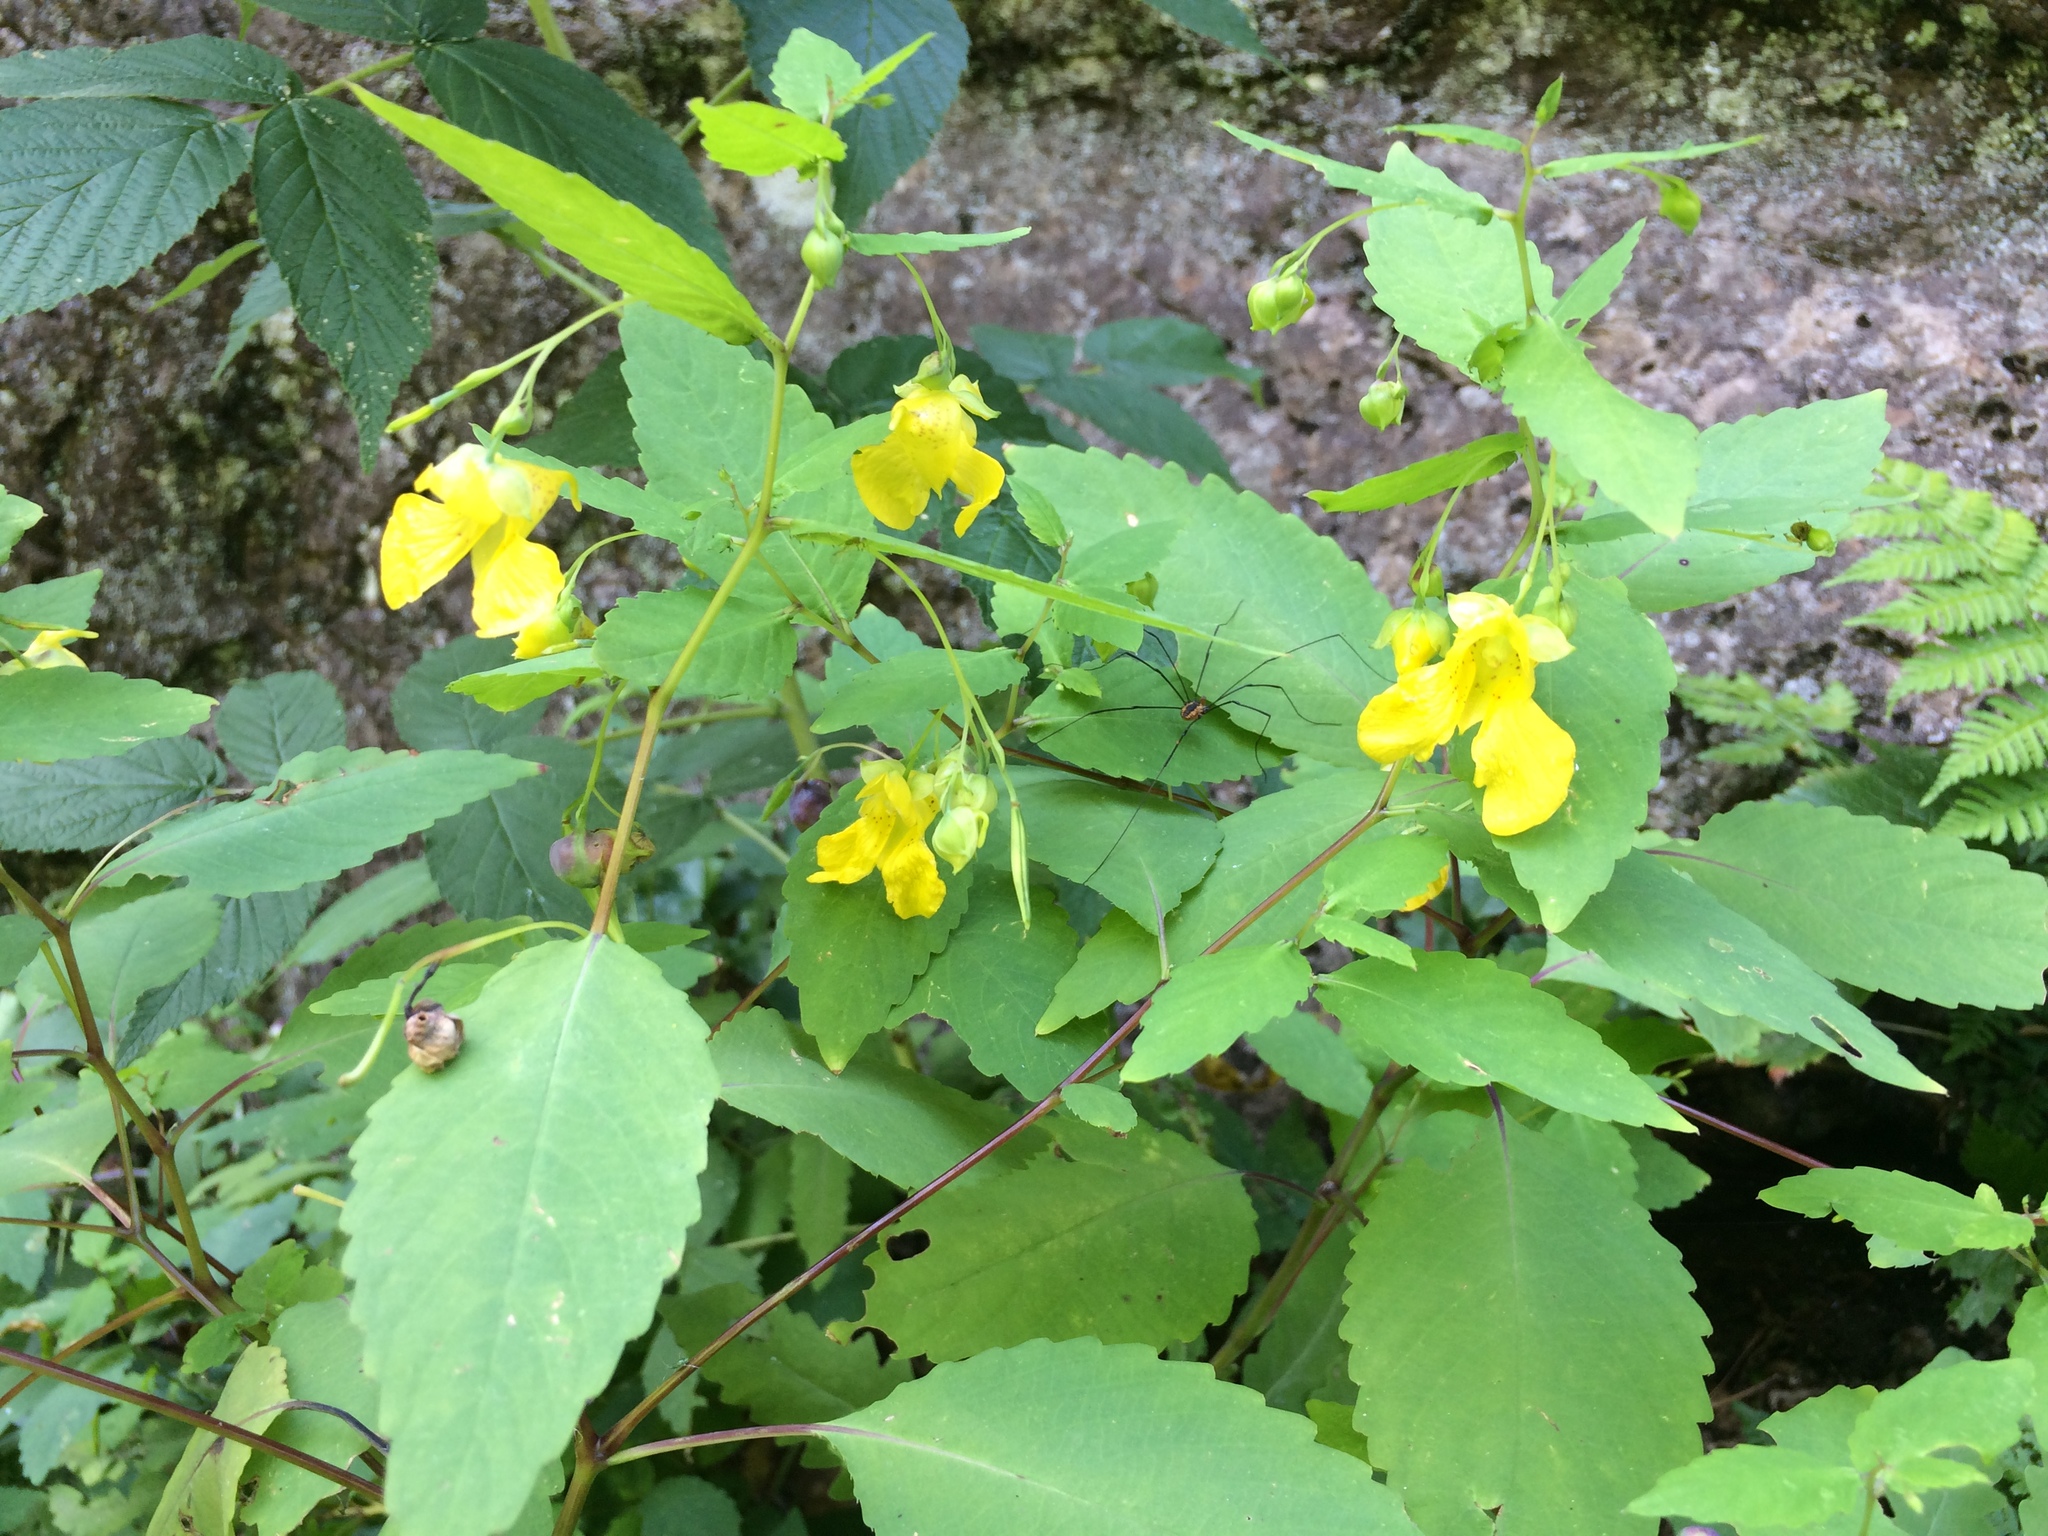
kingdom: Plantae
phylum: Tracheophyta
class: Magnoliopsida
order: Ericales
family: Balsaminaceae
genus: Impatiens
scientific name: Impatiens pallida
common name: Pale snapweed
